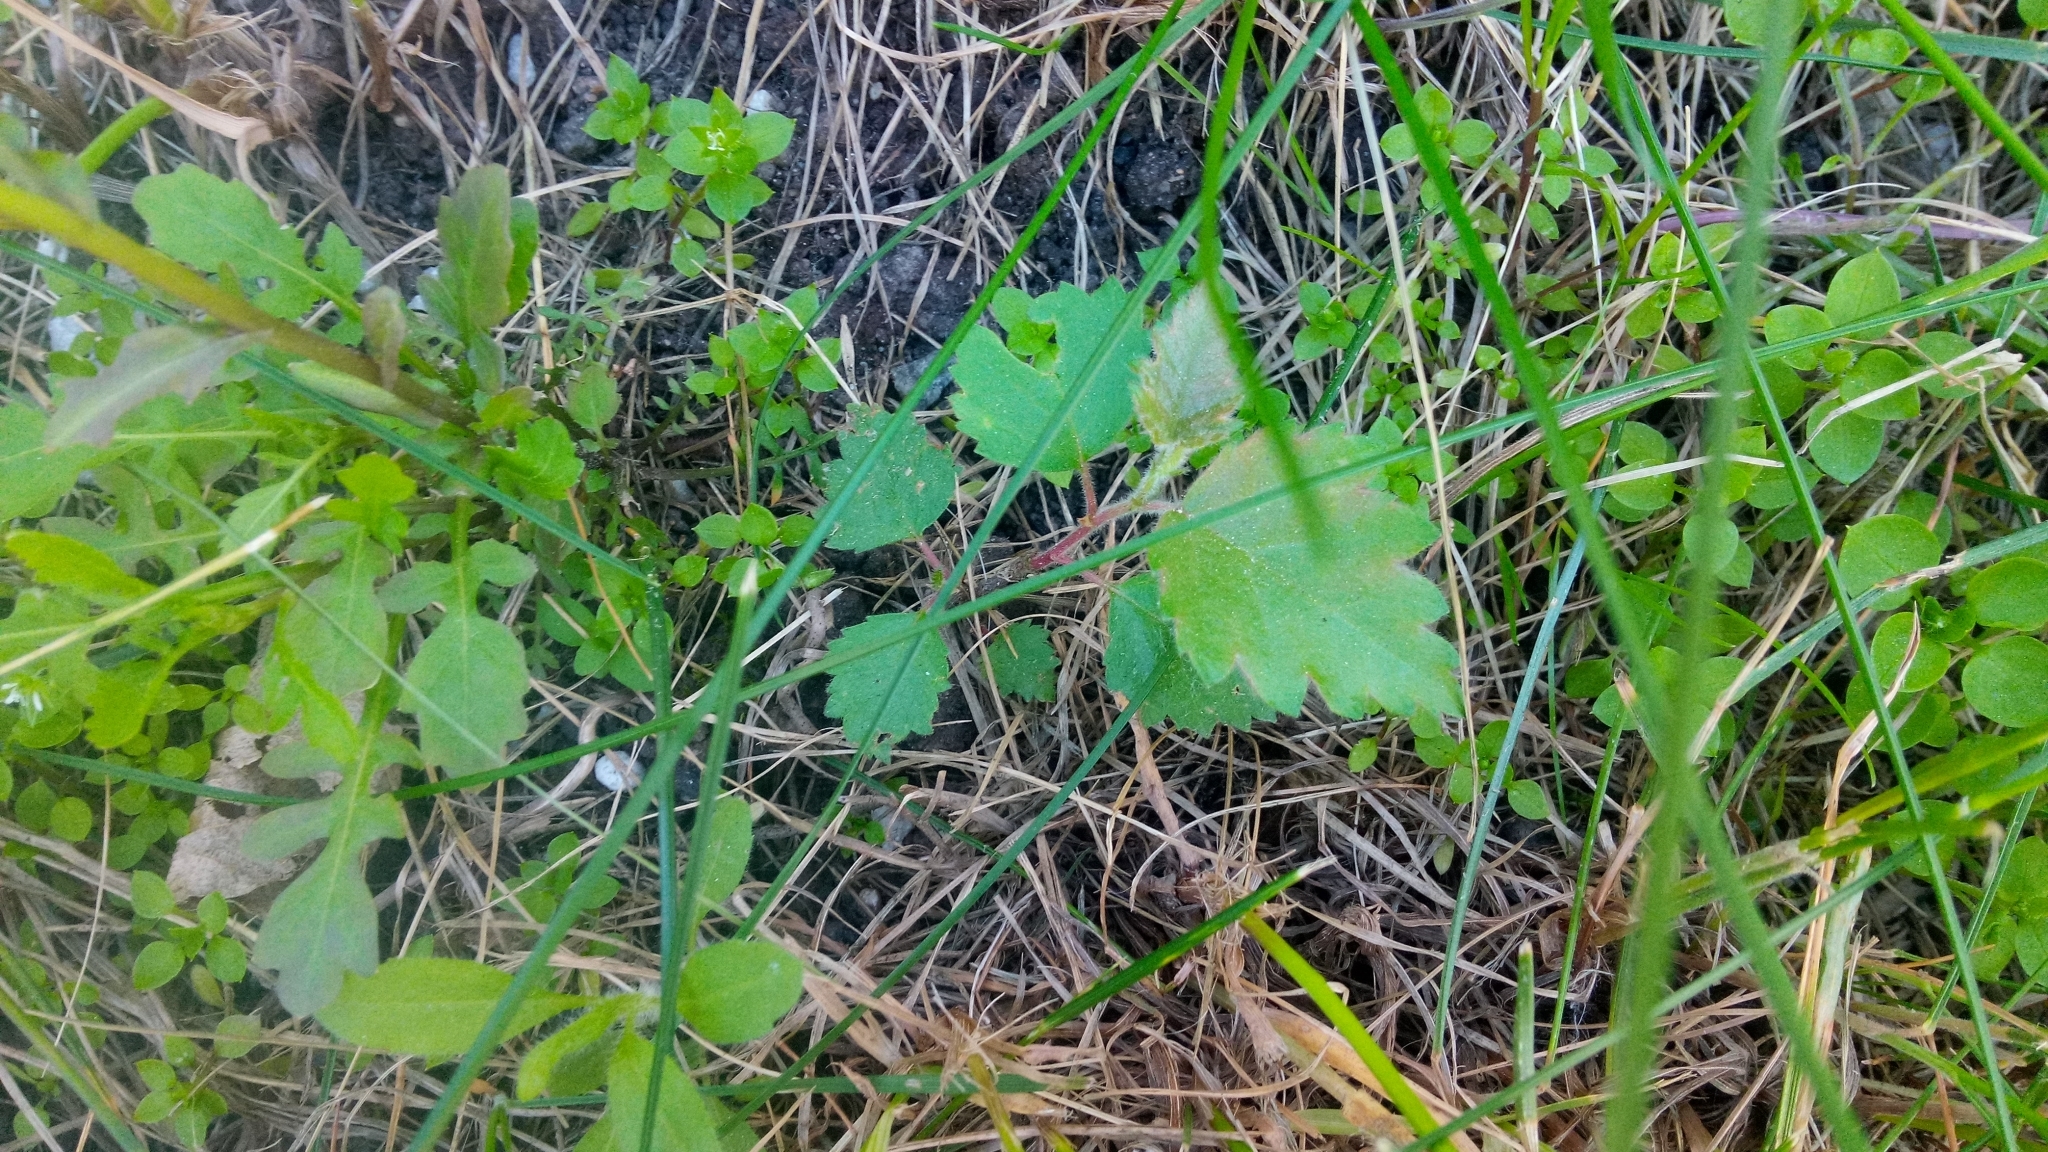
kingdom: Plantae
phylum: Tracheophyta
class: Magnoliopsida
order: Fagales
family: Betulaceae
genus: Betula
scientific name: Betula pubescens
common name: Downy birch
